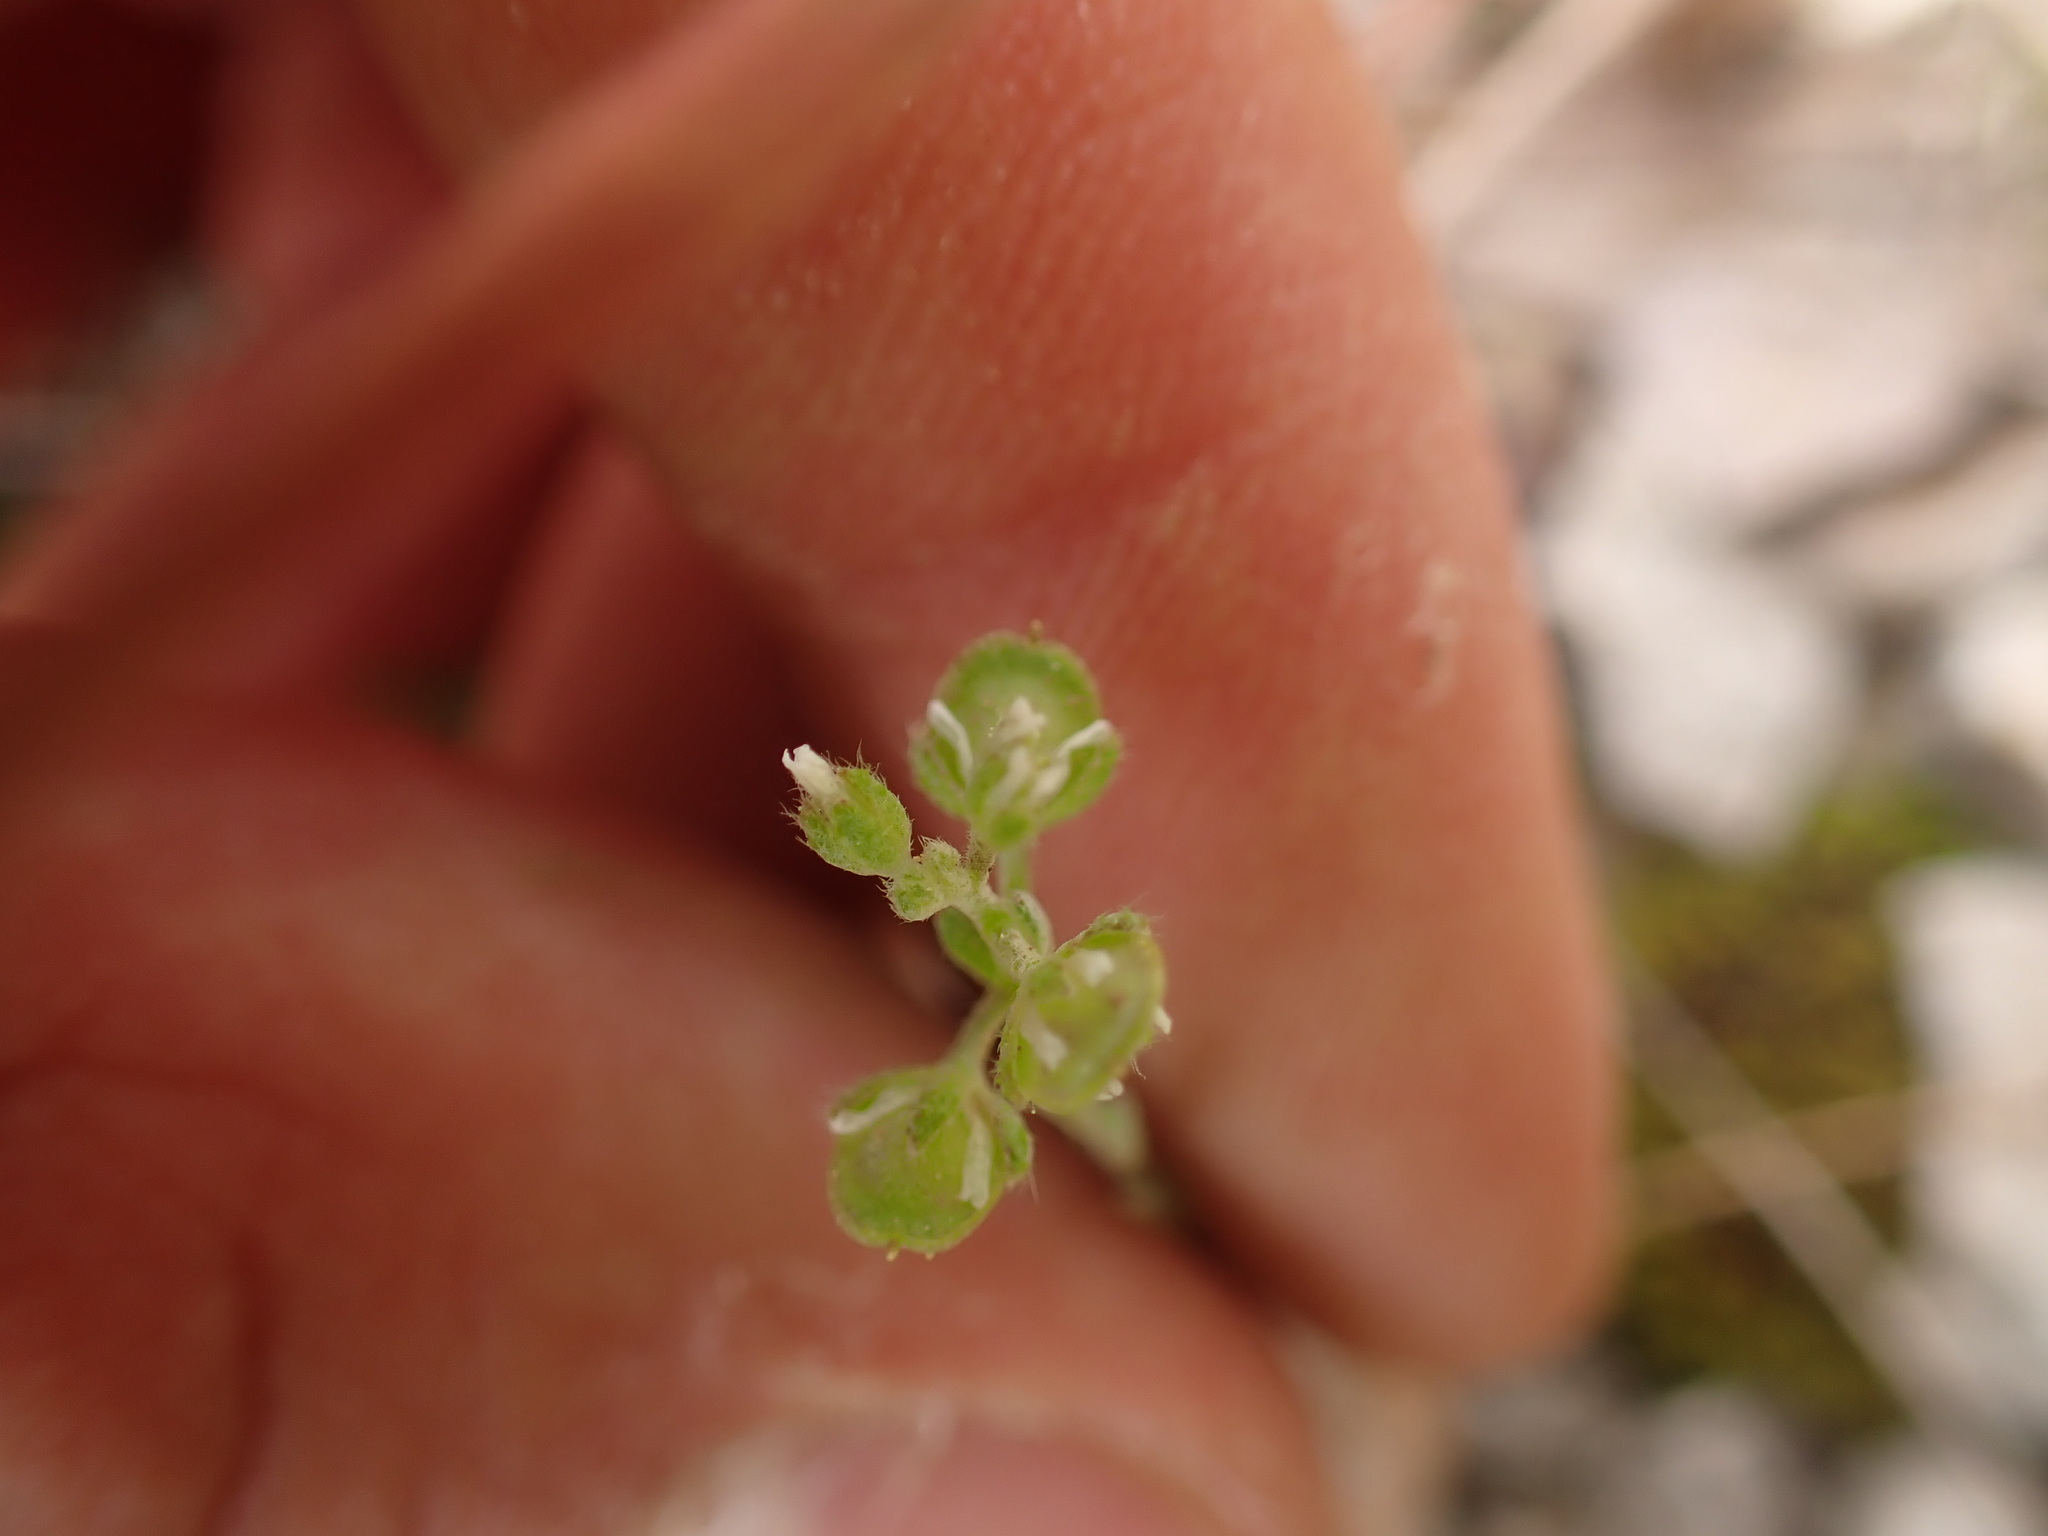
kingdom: Plantae
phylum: Tracheophyta
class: Magnoliopsida
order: Brassicales
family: Brassicaceae
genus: Alyssum
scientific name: Alyssum alyssoides
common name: Small alison
